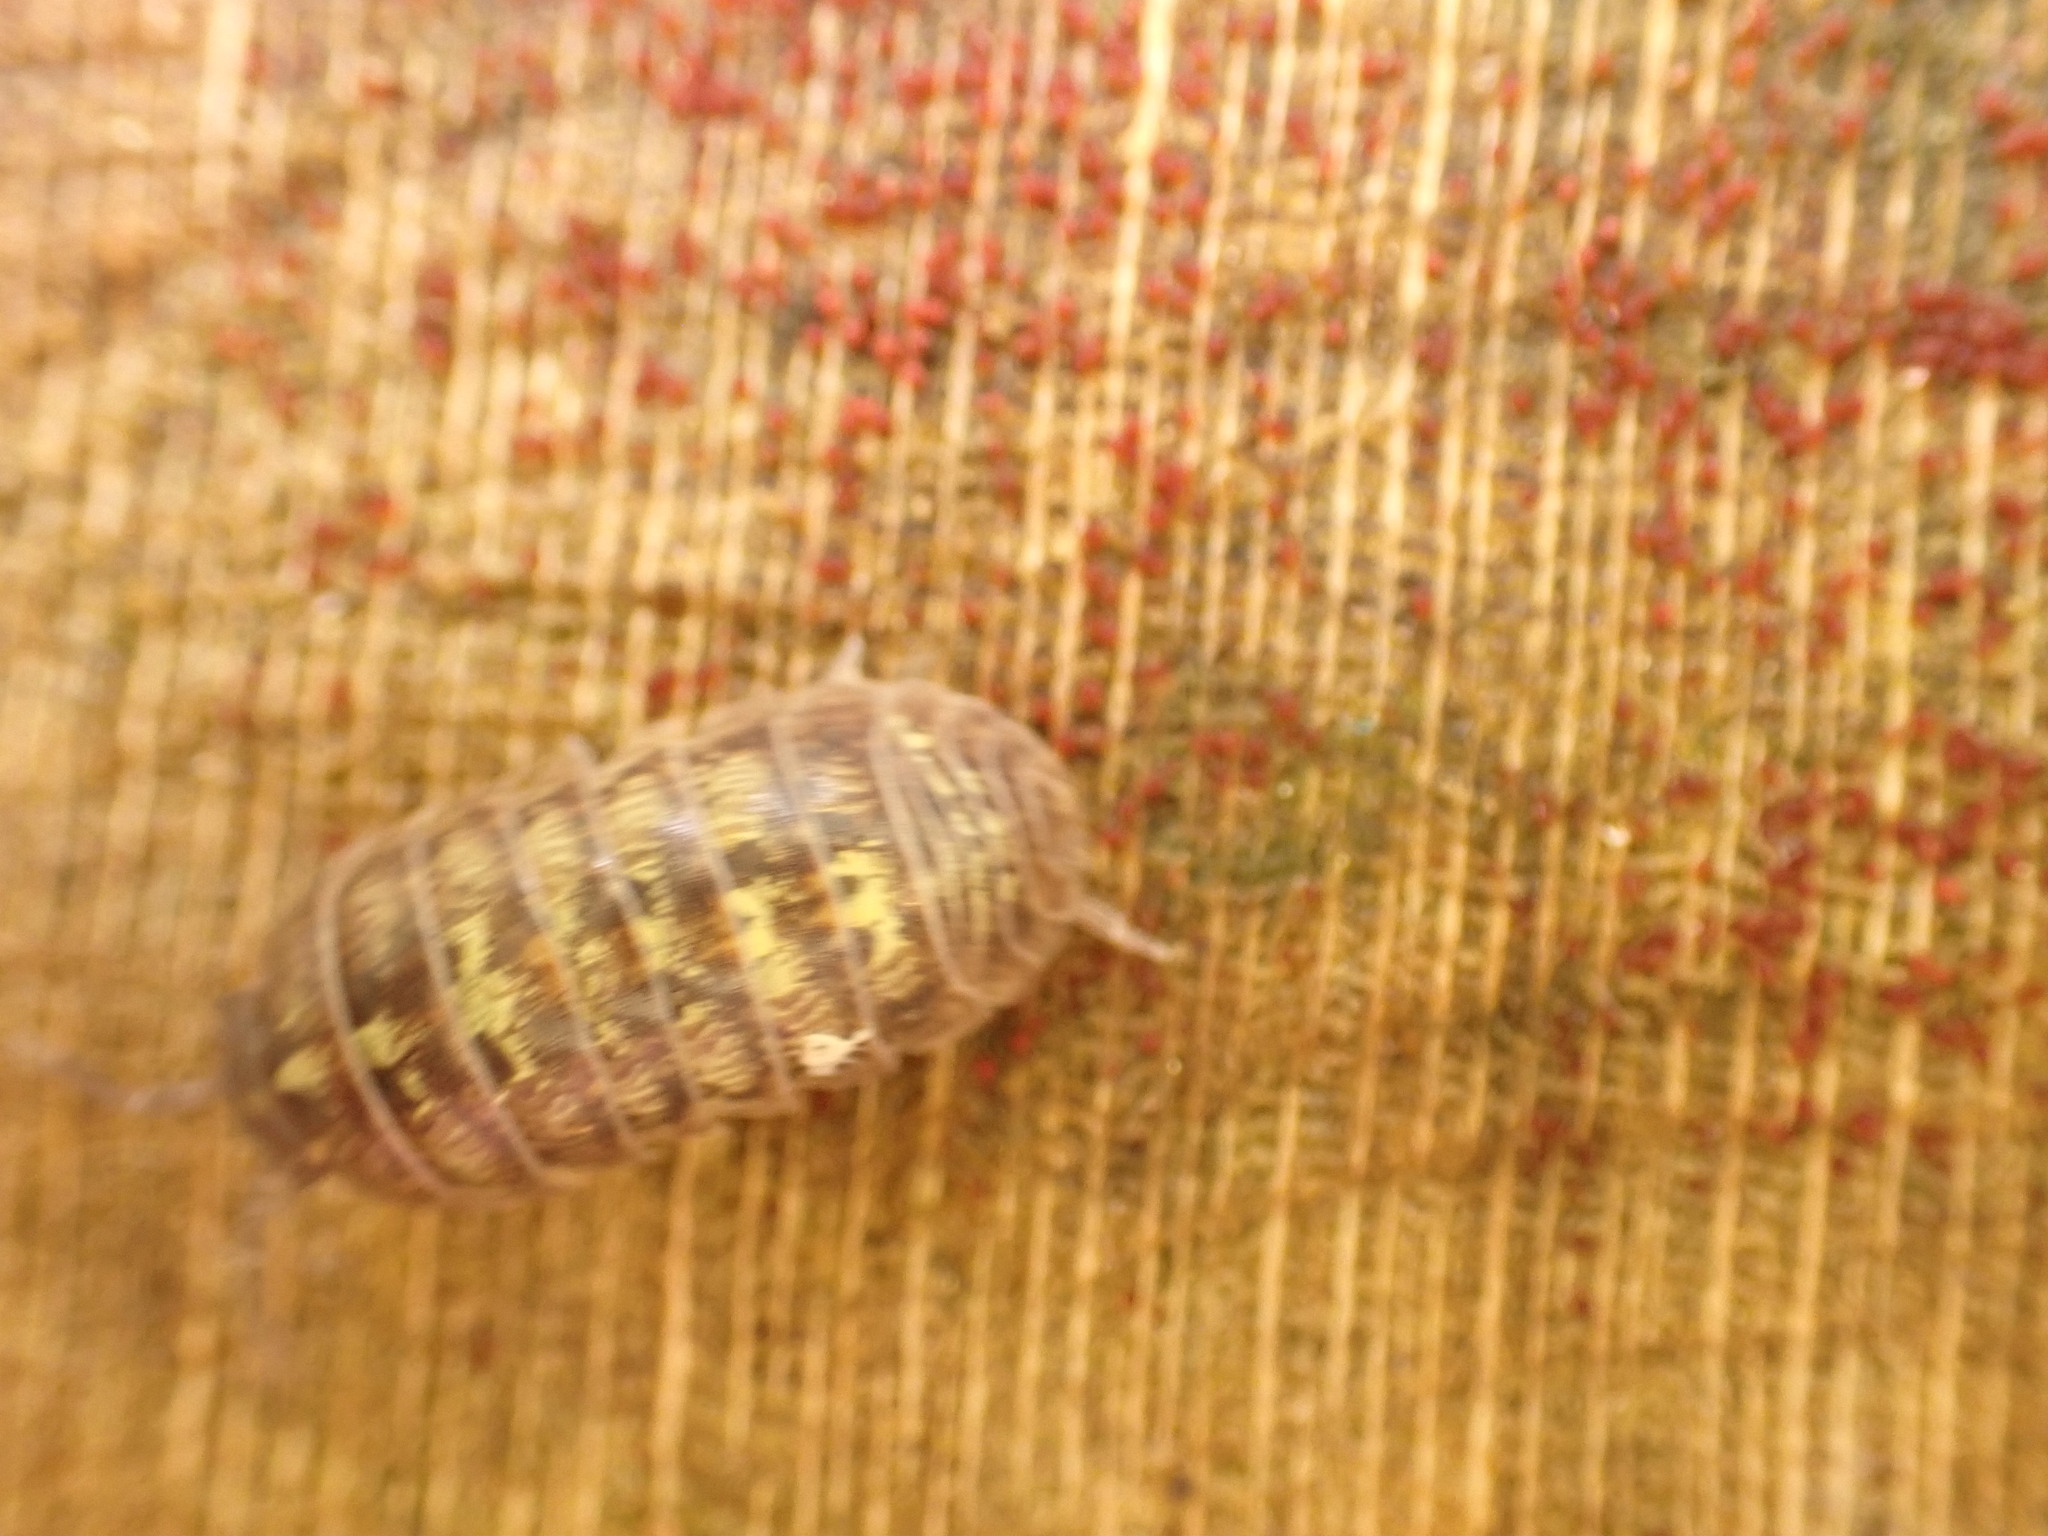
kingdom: Animalia
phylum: Arthropoda
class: Malacostraca
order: Isopoda
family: Armadillidiidae
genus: Armadillidium
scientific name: Armadillidium vulgare
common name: Common pill woodlouse
